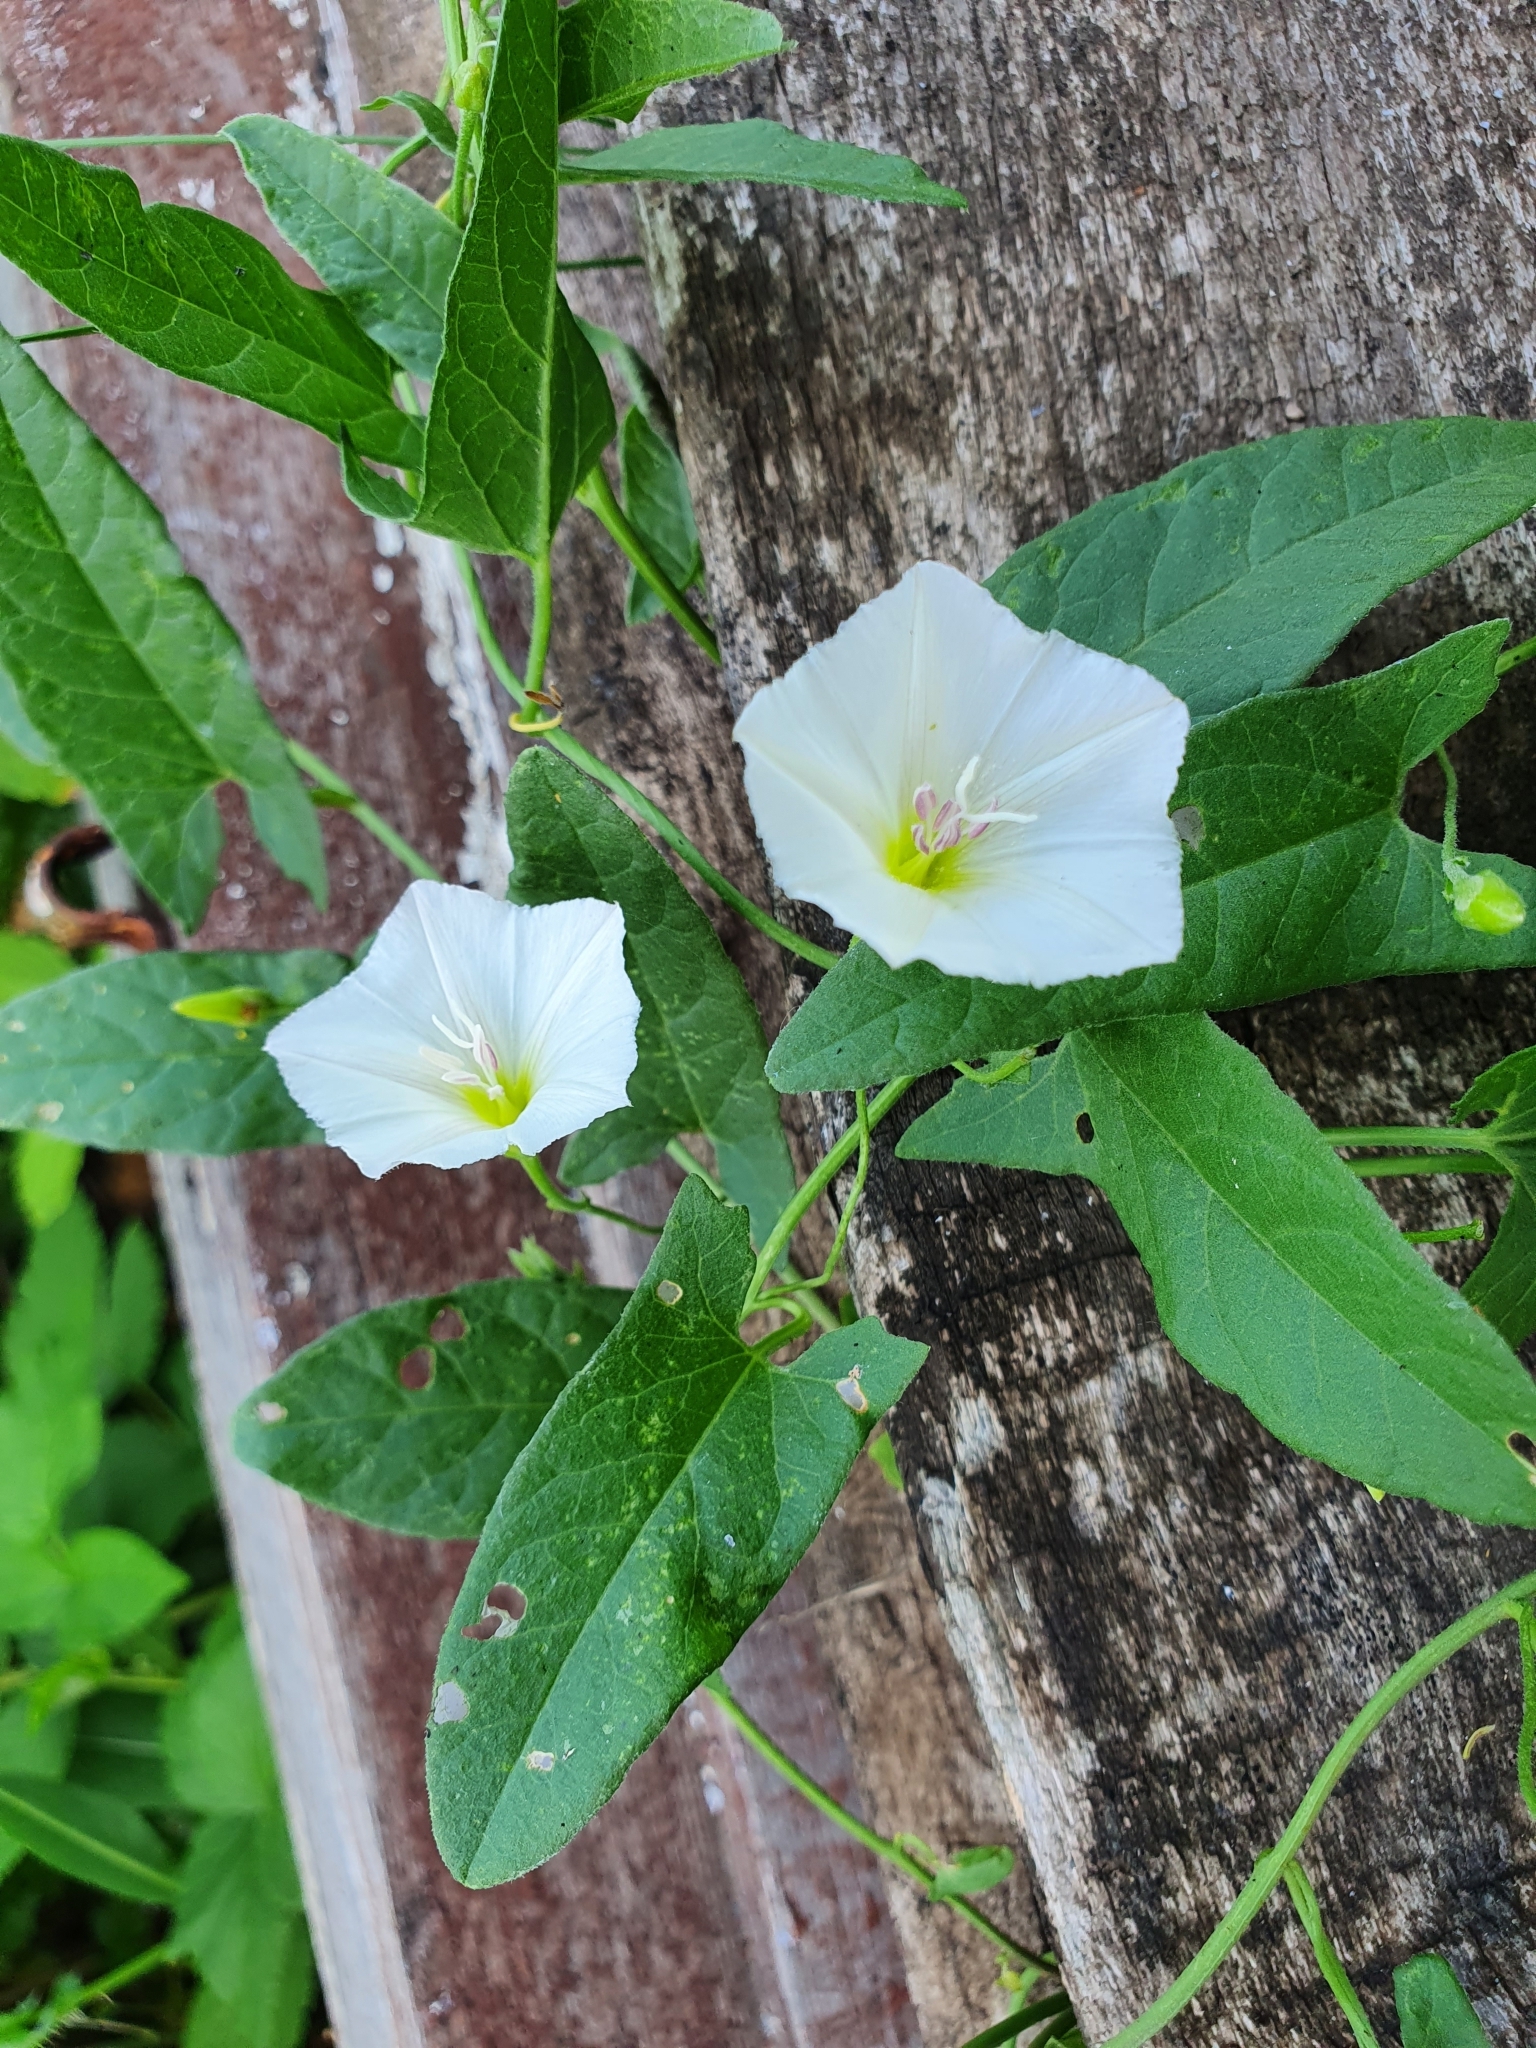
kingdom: Plantae
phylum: Tracheophyta
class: Magnoliopsida
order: Solanales
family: Convolvulaceae
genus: Convolvulus
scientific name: Convolvulus arvensis
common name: Field bindweed
